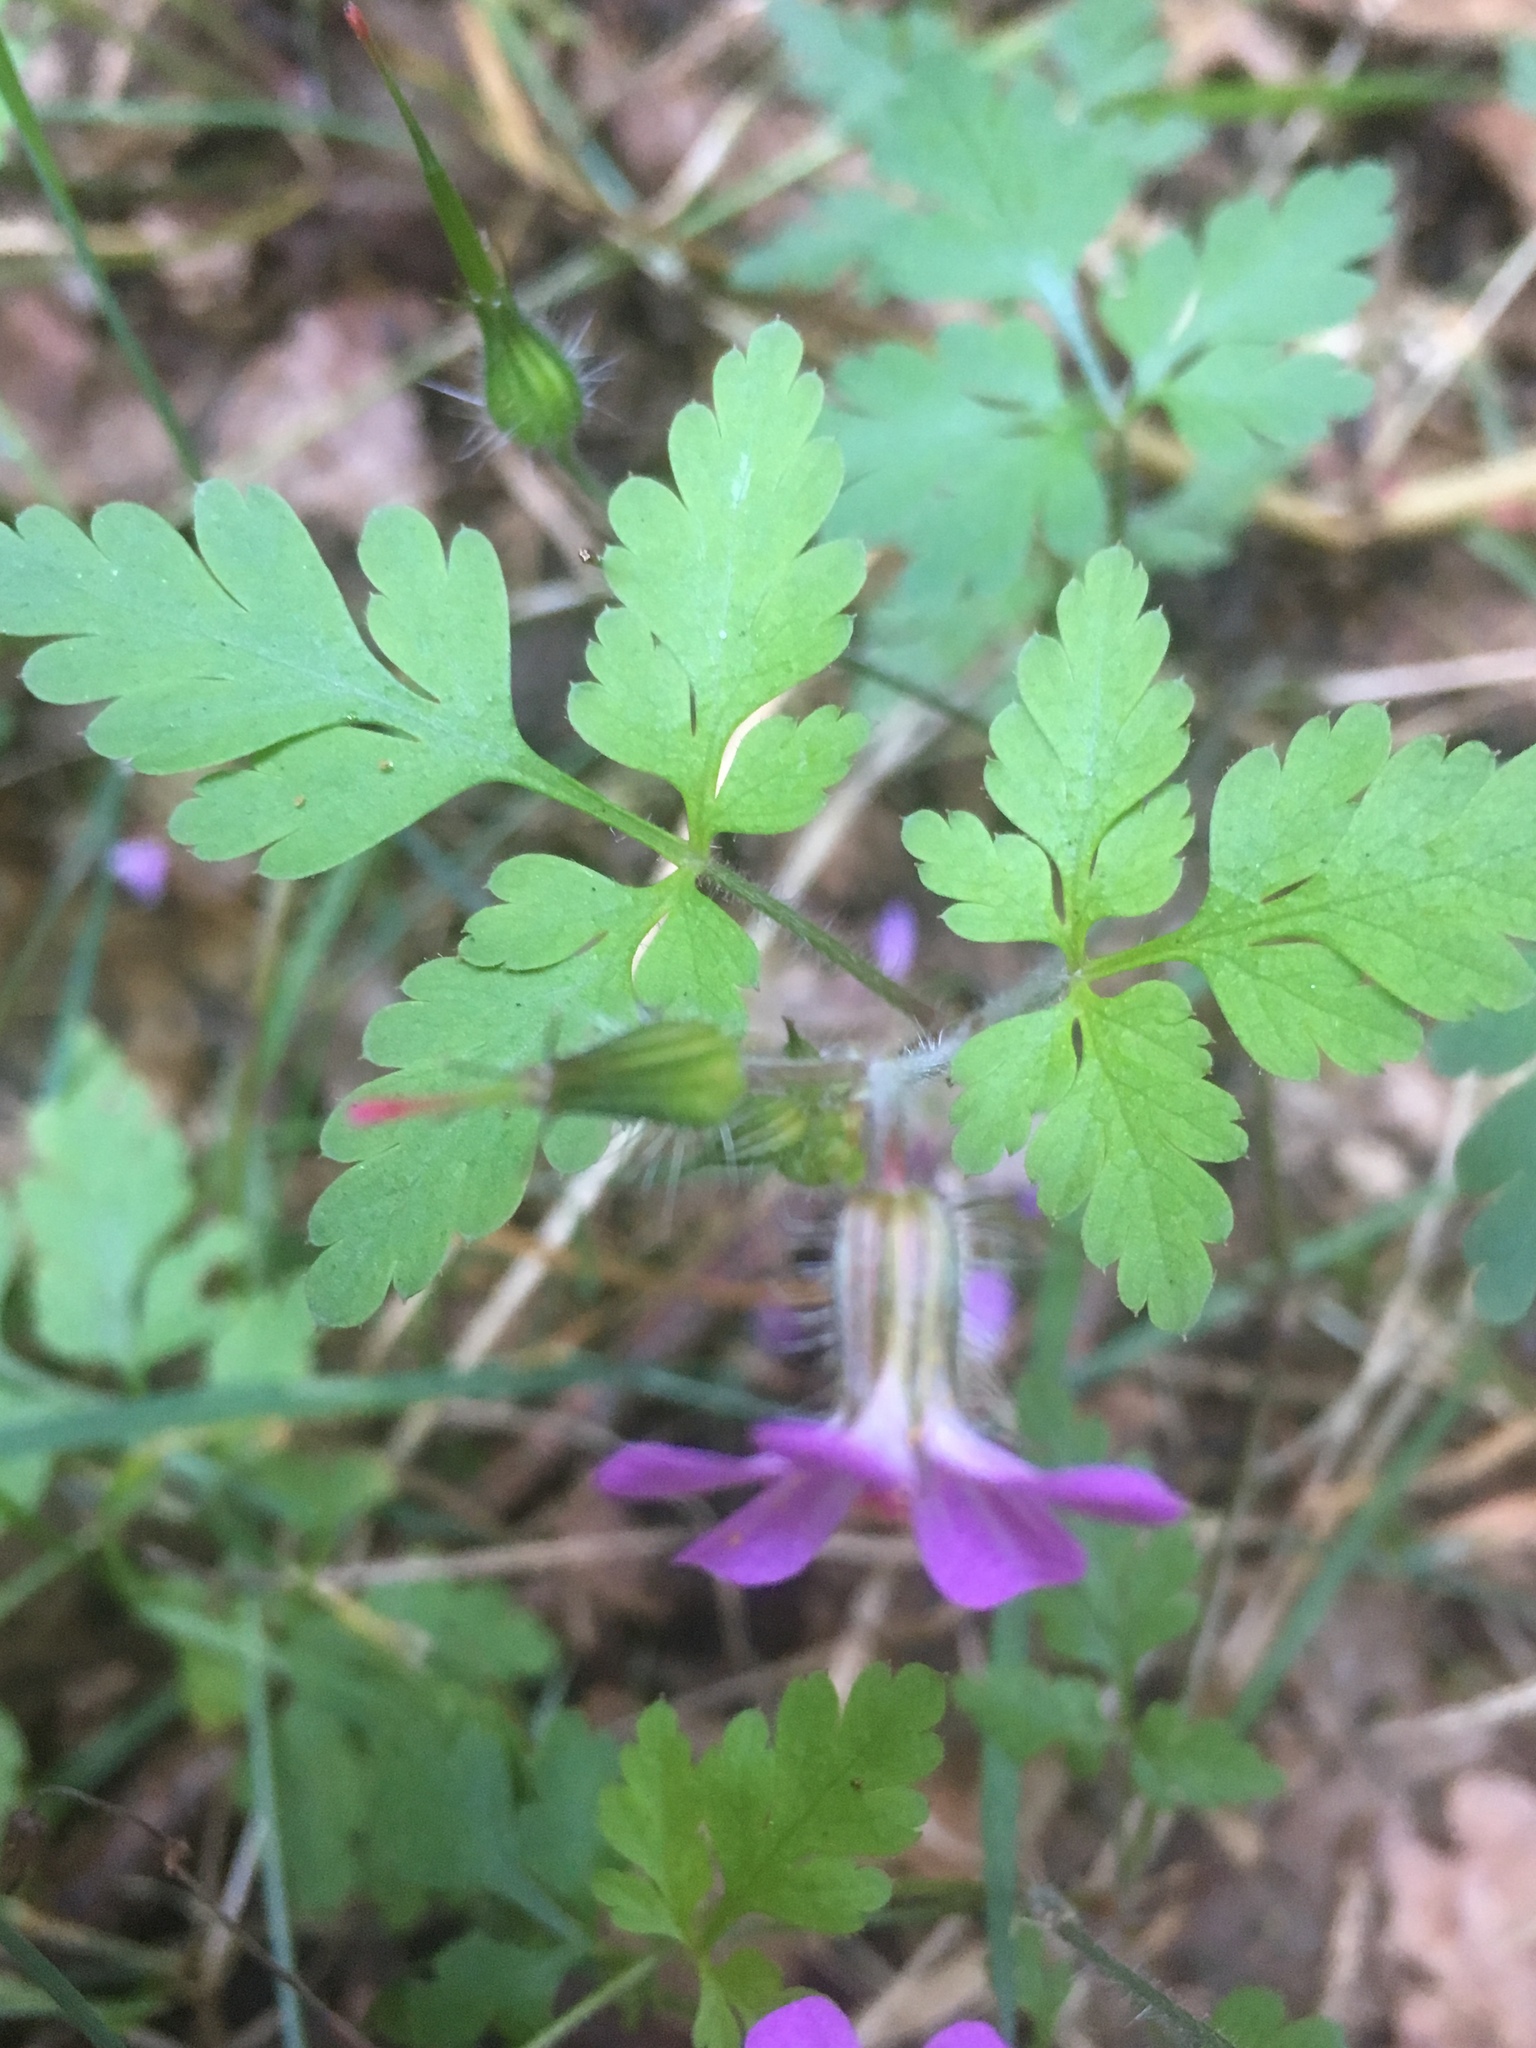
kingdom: Plantae
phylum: Tracheophyta
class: Magnoliopsida
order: Geraniales
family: Geraniaceae
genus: Geranium
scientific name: Geranium robertianum
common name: Herb-robert
